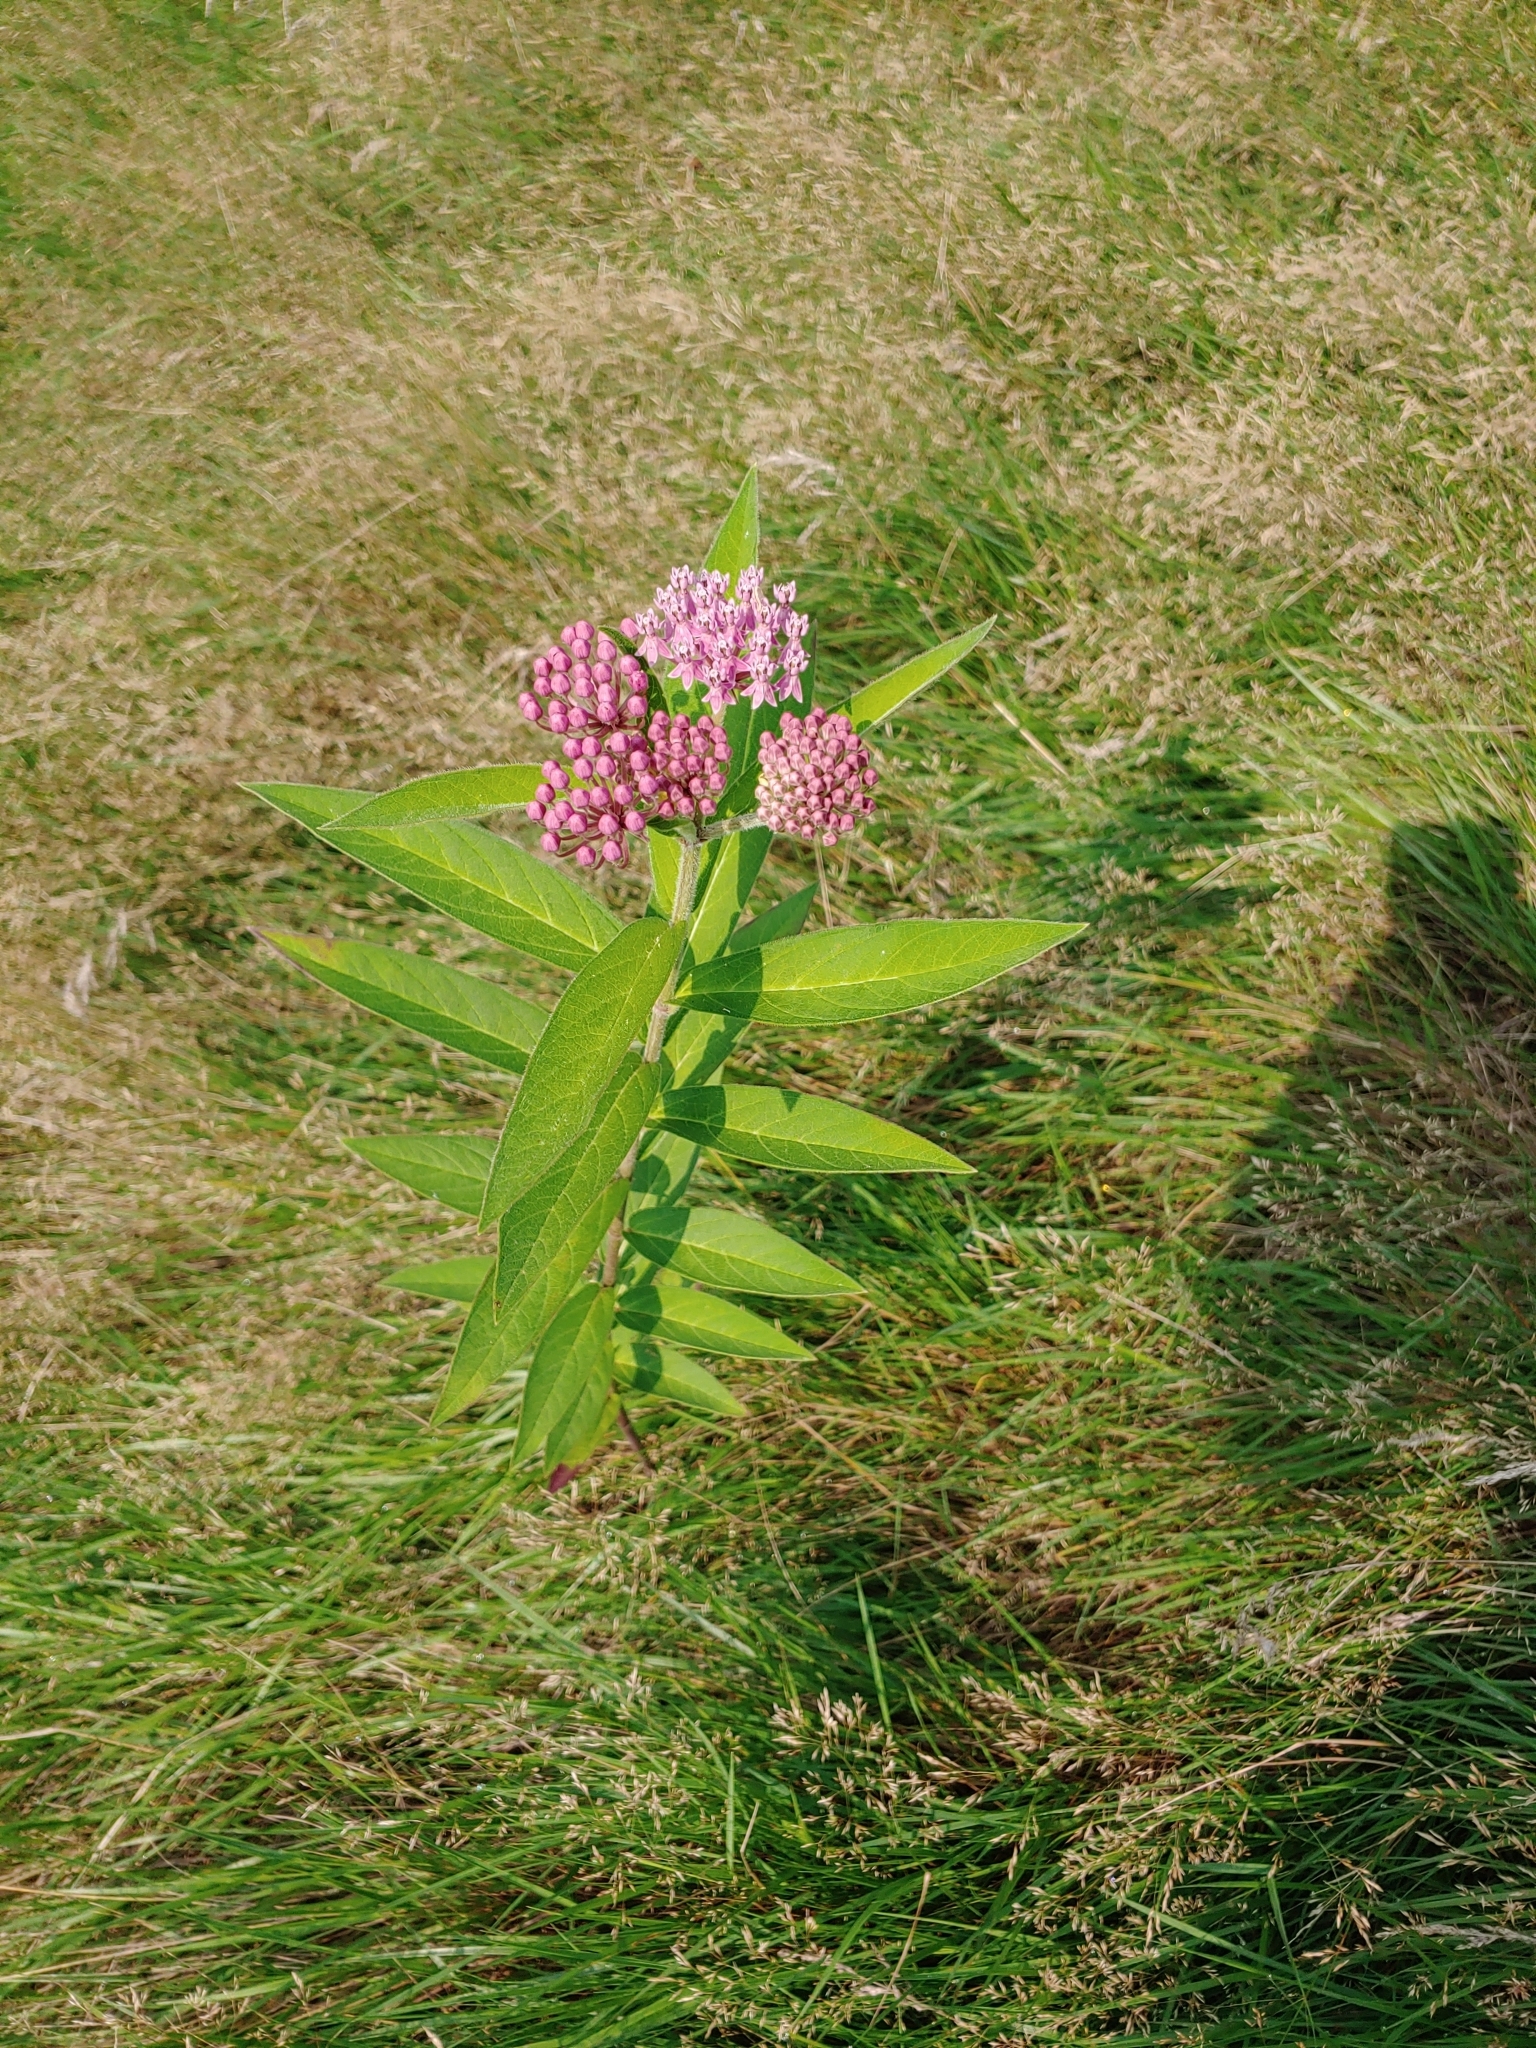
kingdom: Plantae
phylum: Tracheophyta
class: Magnoliopsida
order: Gentianales
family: Apocynaceae
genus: Asclepias
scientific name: Asclepias incarnata
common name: Swamp milkweed
